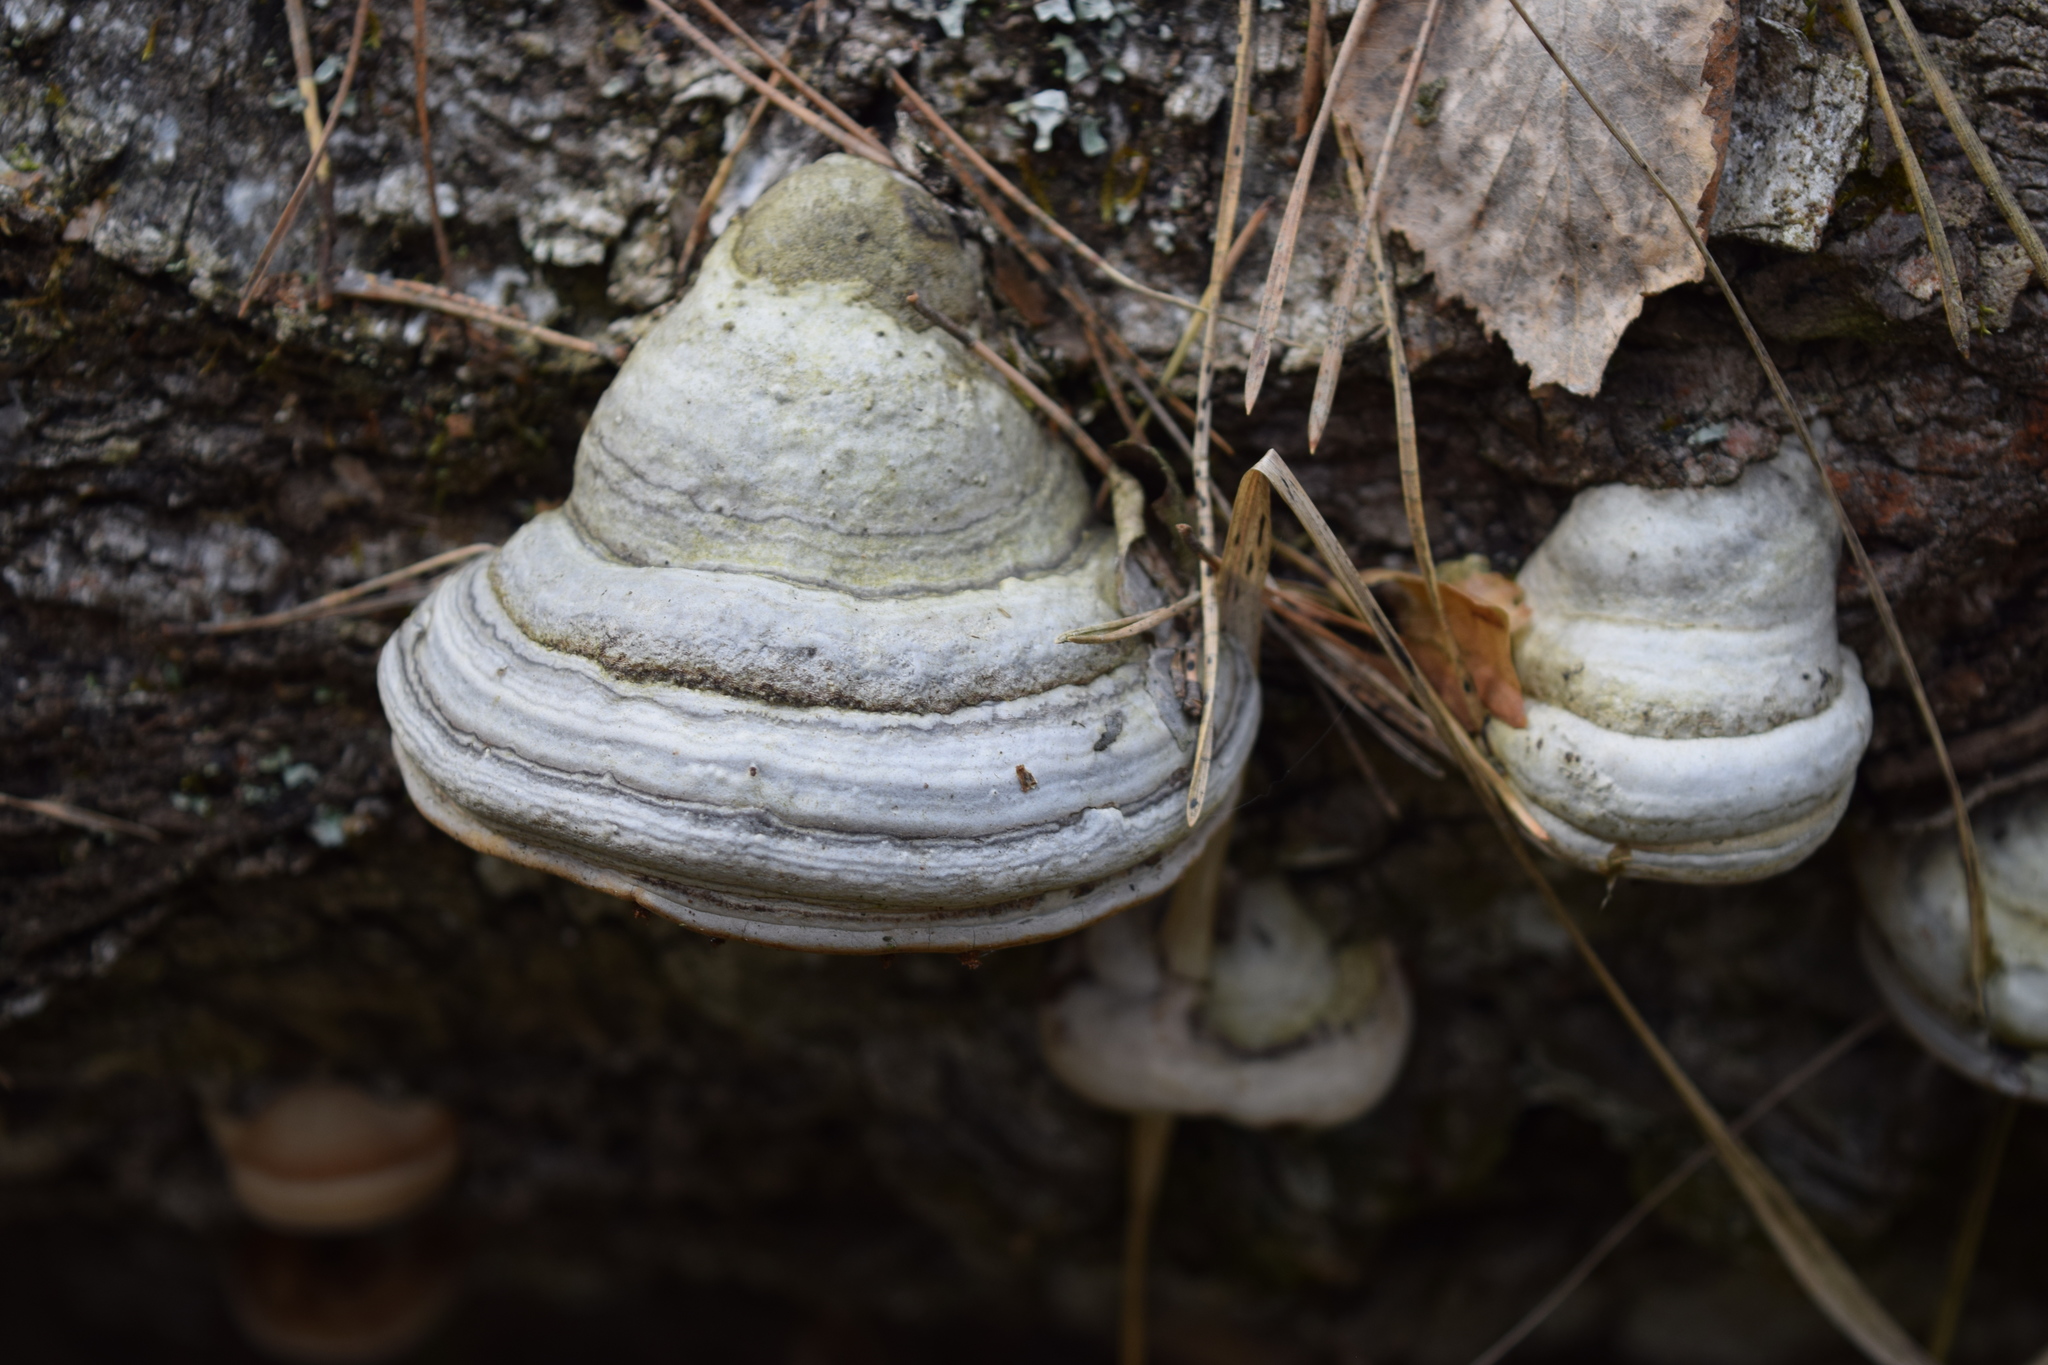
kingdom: Fungi
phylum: Basidiomycota
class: Agaricomycetes
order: Polyporales
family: Polyporaceae
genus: Fomes
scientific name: Fomes fomentarius
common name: Hoof fungus
